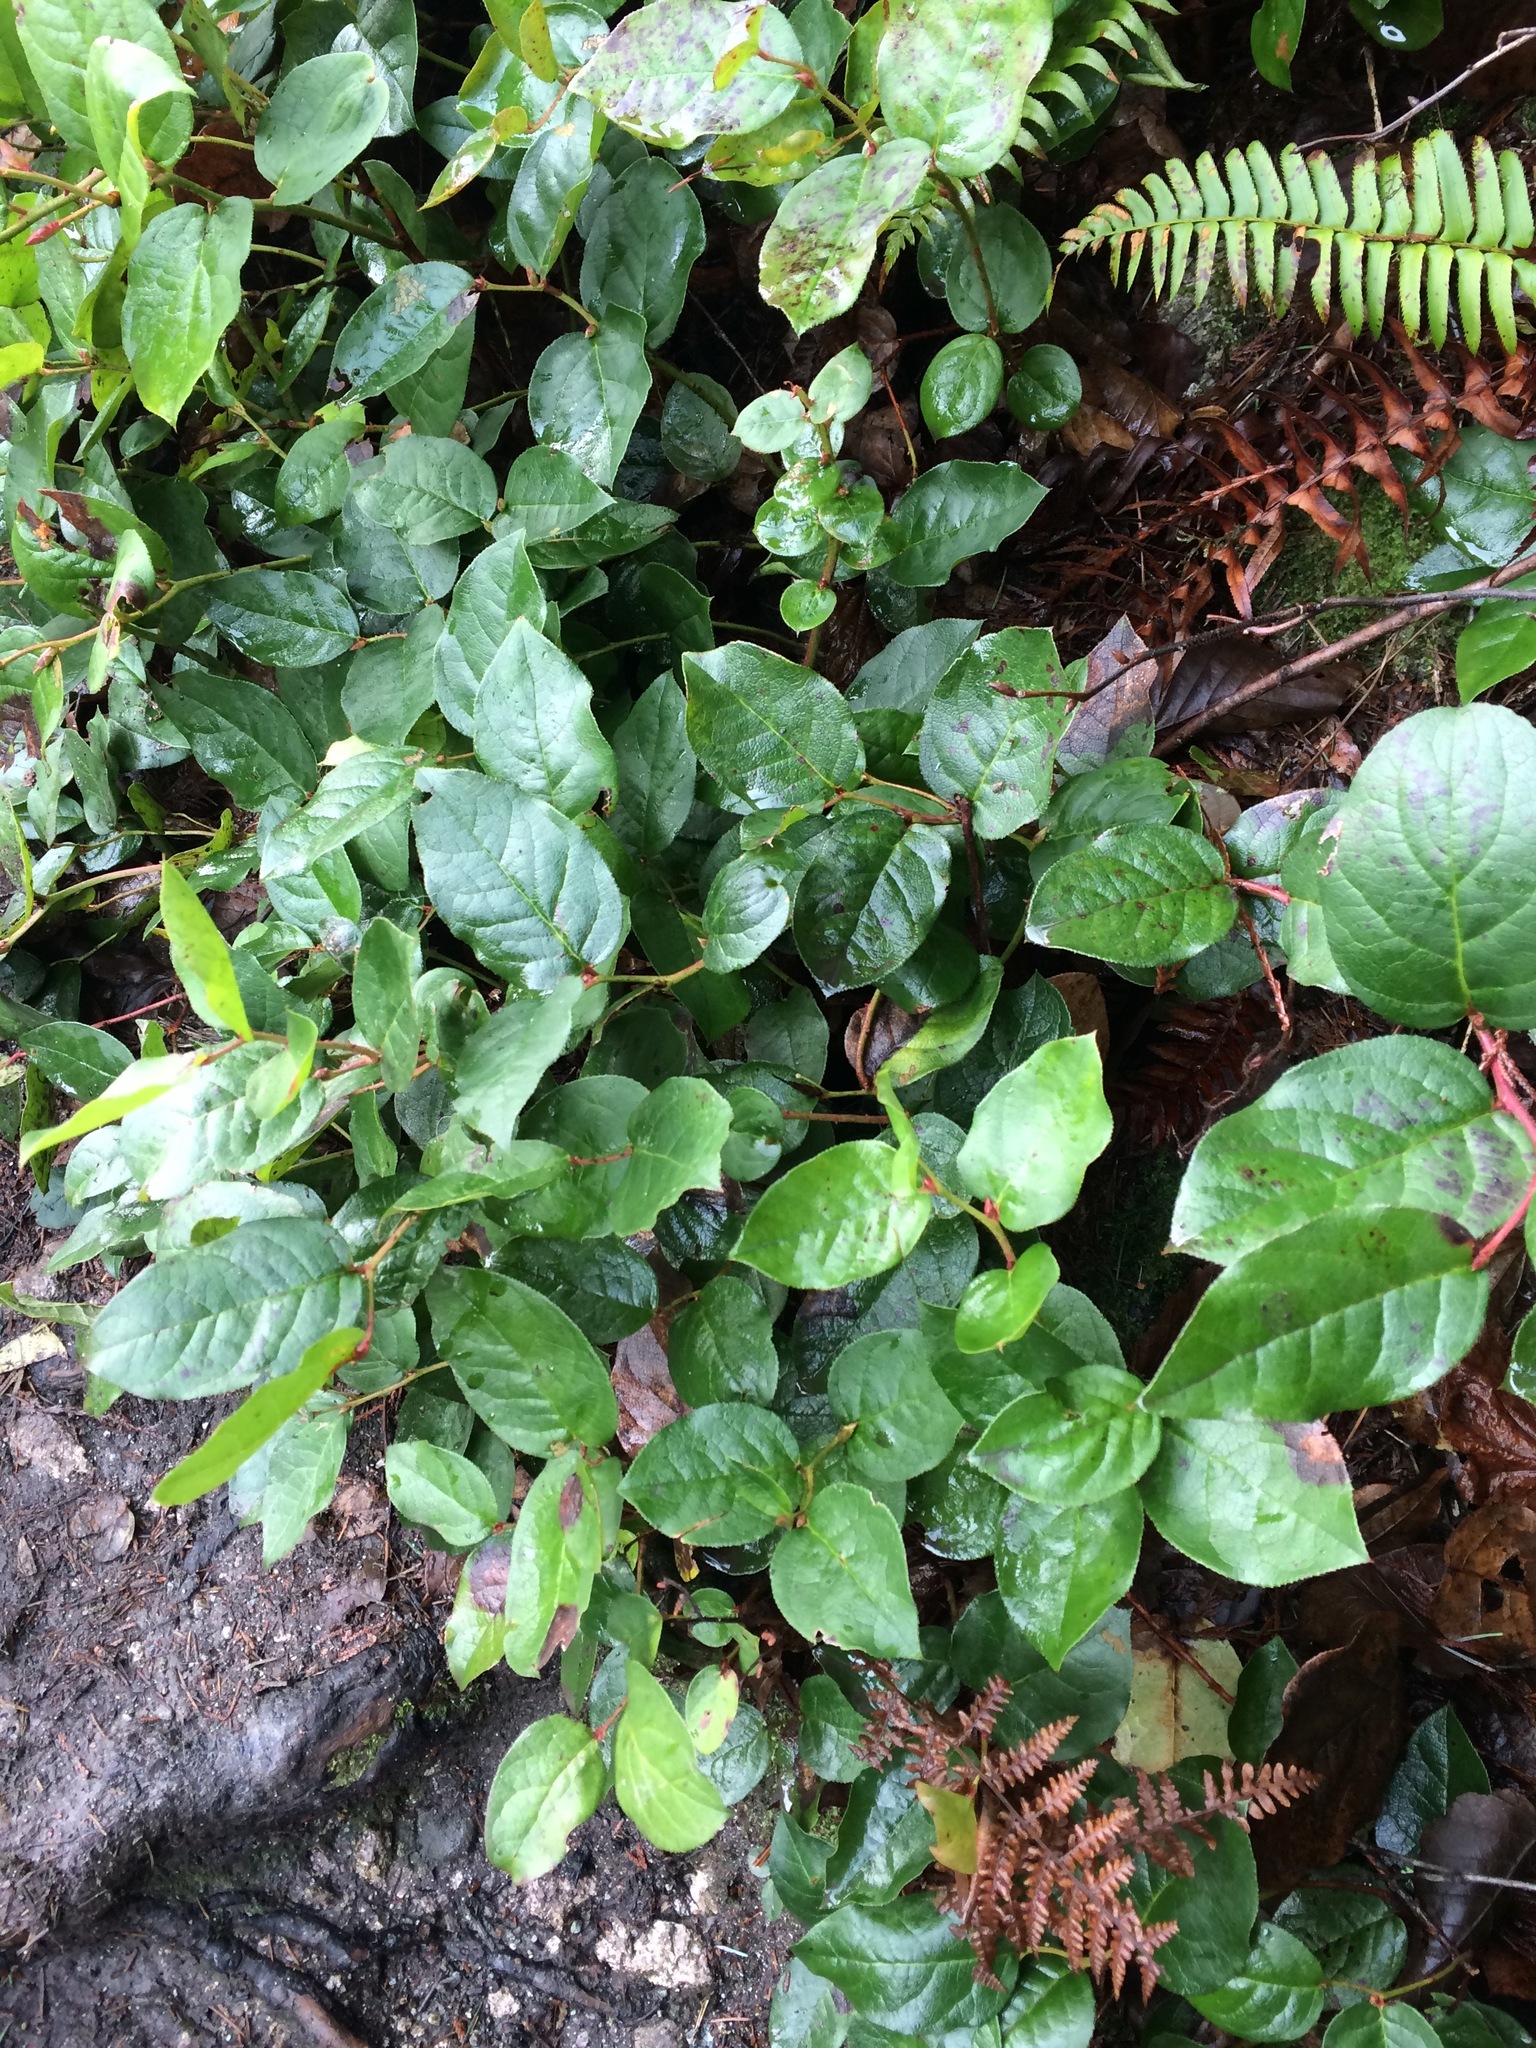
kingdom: Plantae
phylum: Tracheophyta
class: Magnoliopsida
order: Ericales
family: Ericaceae
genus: Gaultheria
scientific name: Gaultheria shallon
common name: Shallon
